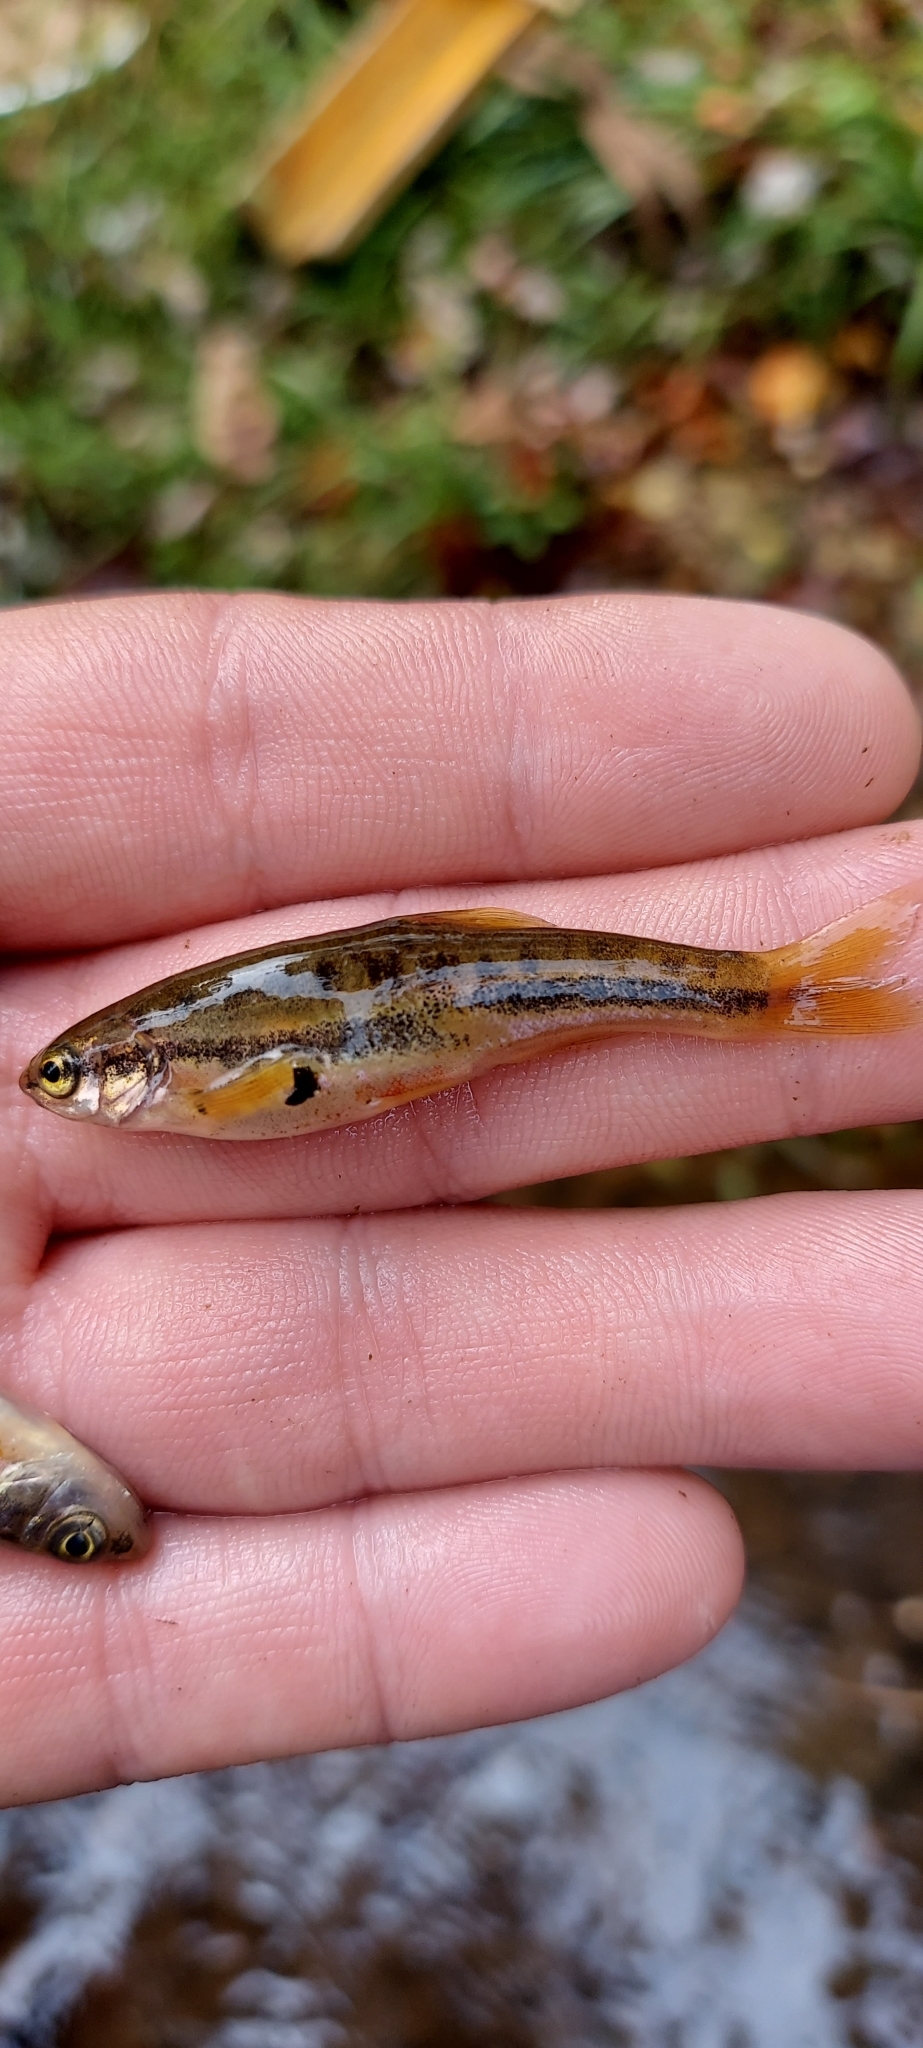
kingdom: Animalia
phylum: Chordata
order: Cypriniformes
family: Cyprinidae
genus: Chrosomus
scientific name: Chrosomus oreas
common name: Mountain redbelly dace
